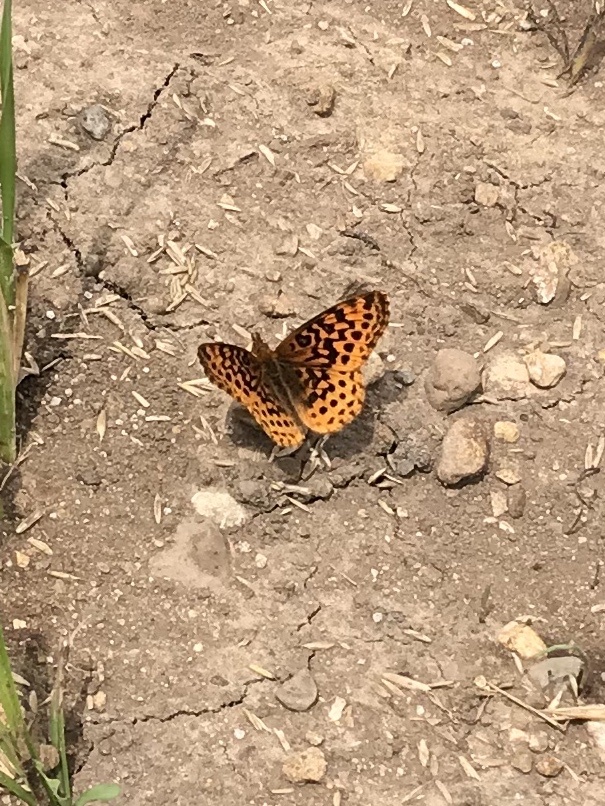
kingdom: Animalia
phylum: Arthropoda
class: Insecta
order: Lepidoptera
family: Nymphalidae
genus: Clossiana
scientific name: Clossiana toddi
